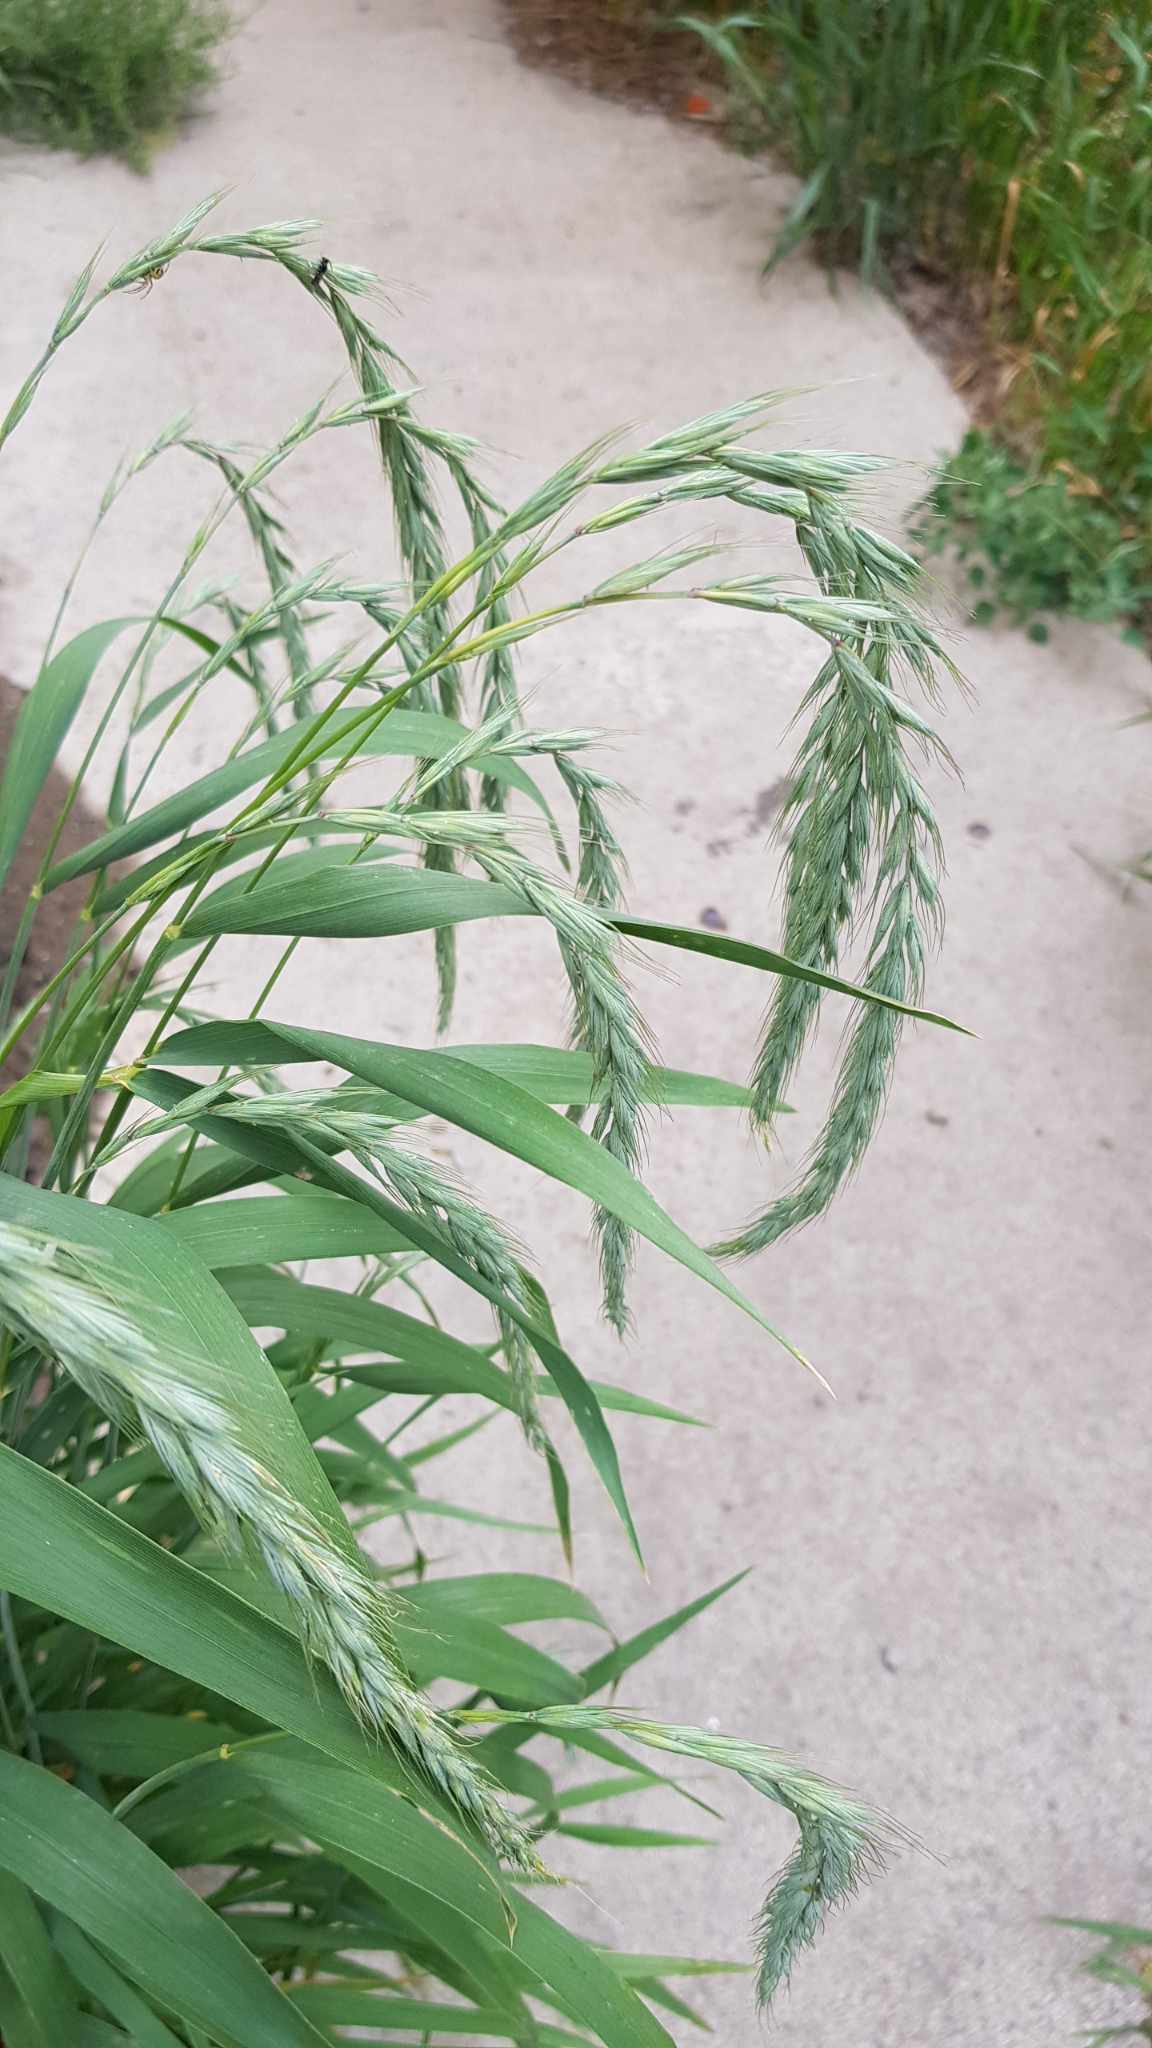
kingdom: Plantae
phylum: Tracheophyta
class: Liliopsida
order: Poales
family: Poaceae
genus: Elymus
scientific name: Elymus sibiricus
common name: Siberian wildrye
